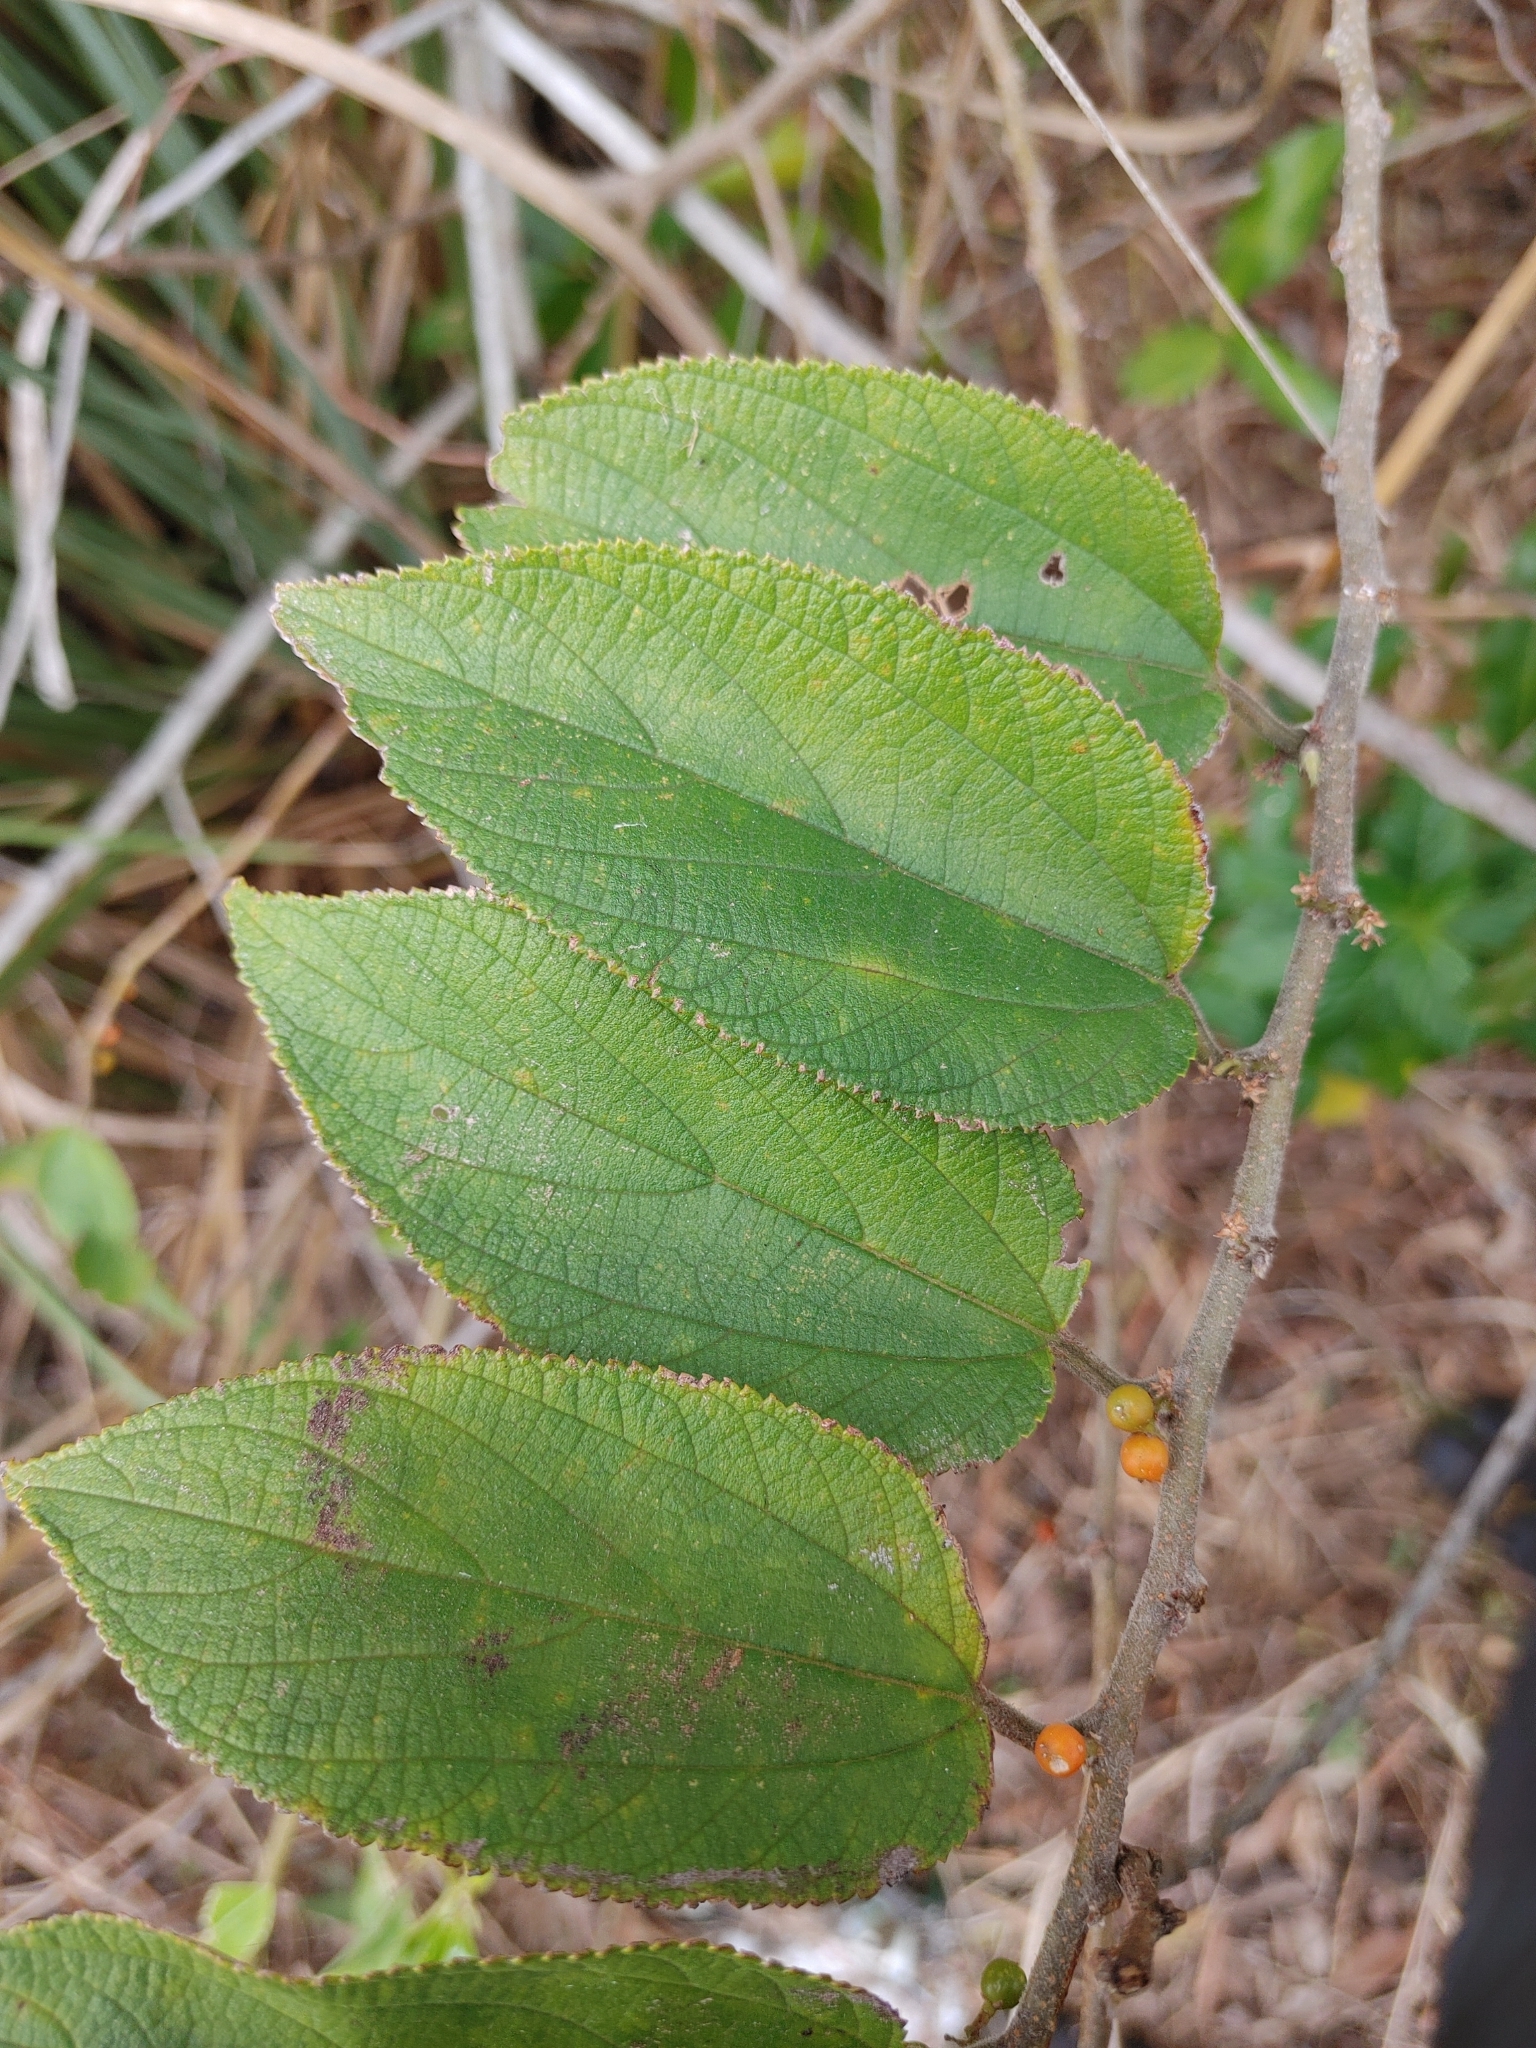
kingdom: Plantae
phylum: Tracheophyta
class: Magnoliopsida
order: Rosales
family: Cannabaceae
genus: Trema
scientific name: Trema micranthum
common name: Jamaican nettletree
